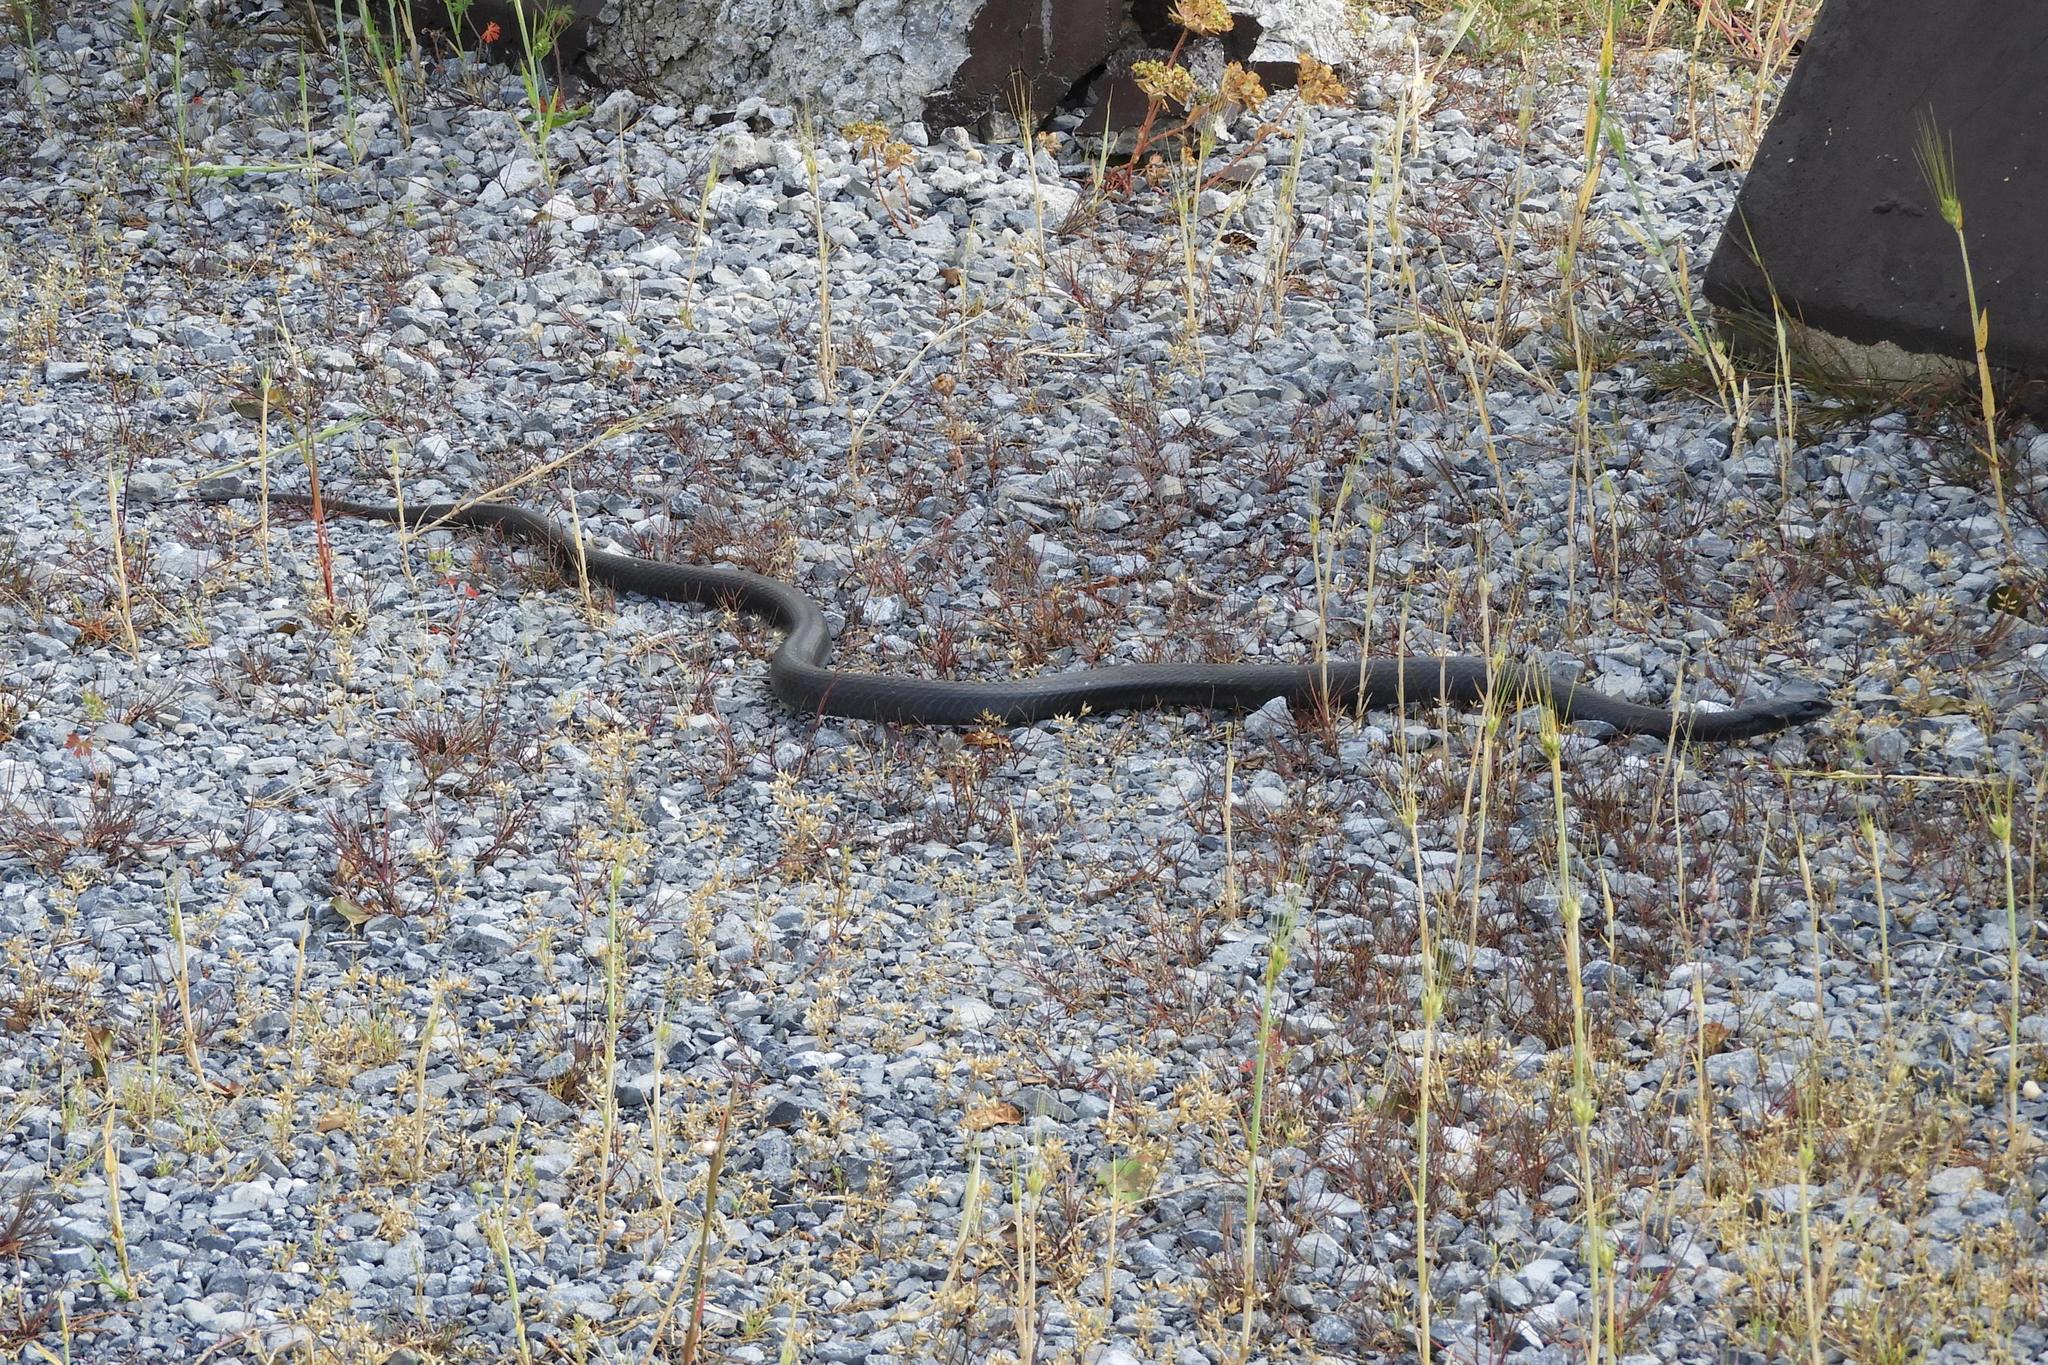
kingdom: Animalia
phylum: Chordata
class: Squamata
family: Colubridae
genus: Coluber
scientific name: Coluber constrictor
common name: Eastern racer
